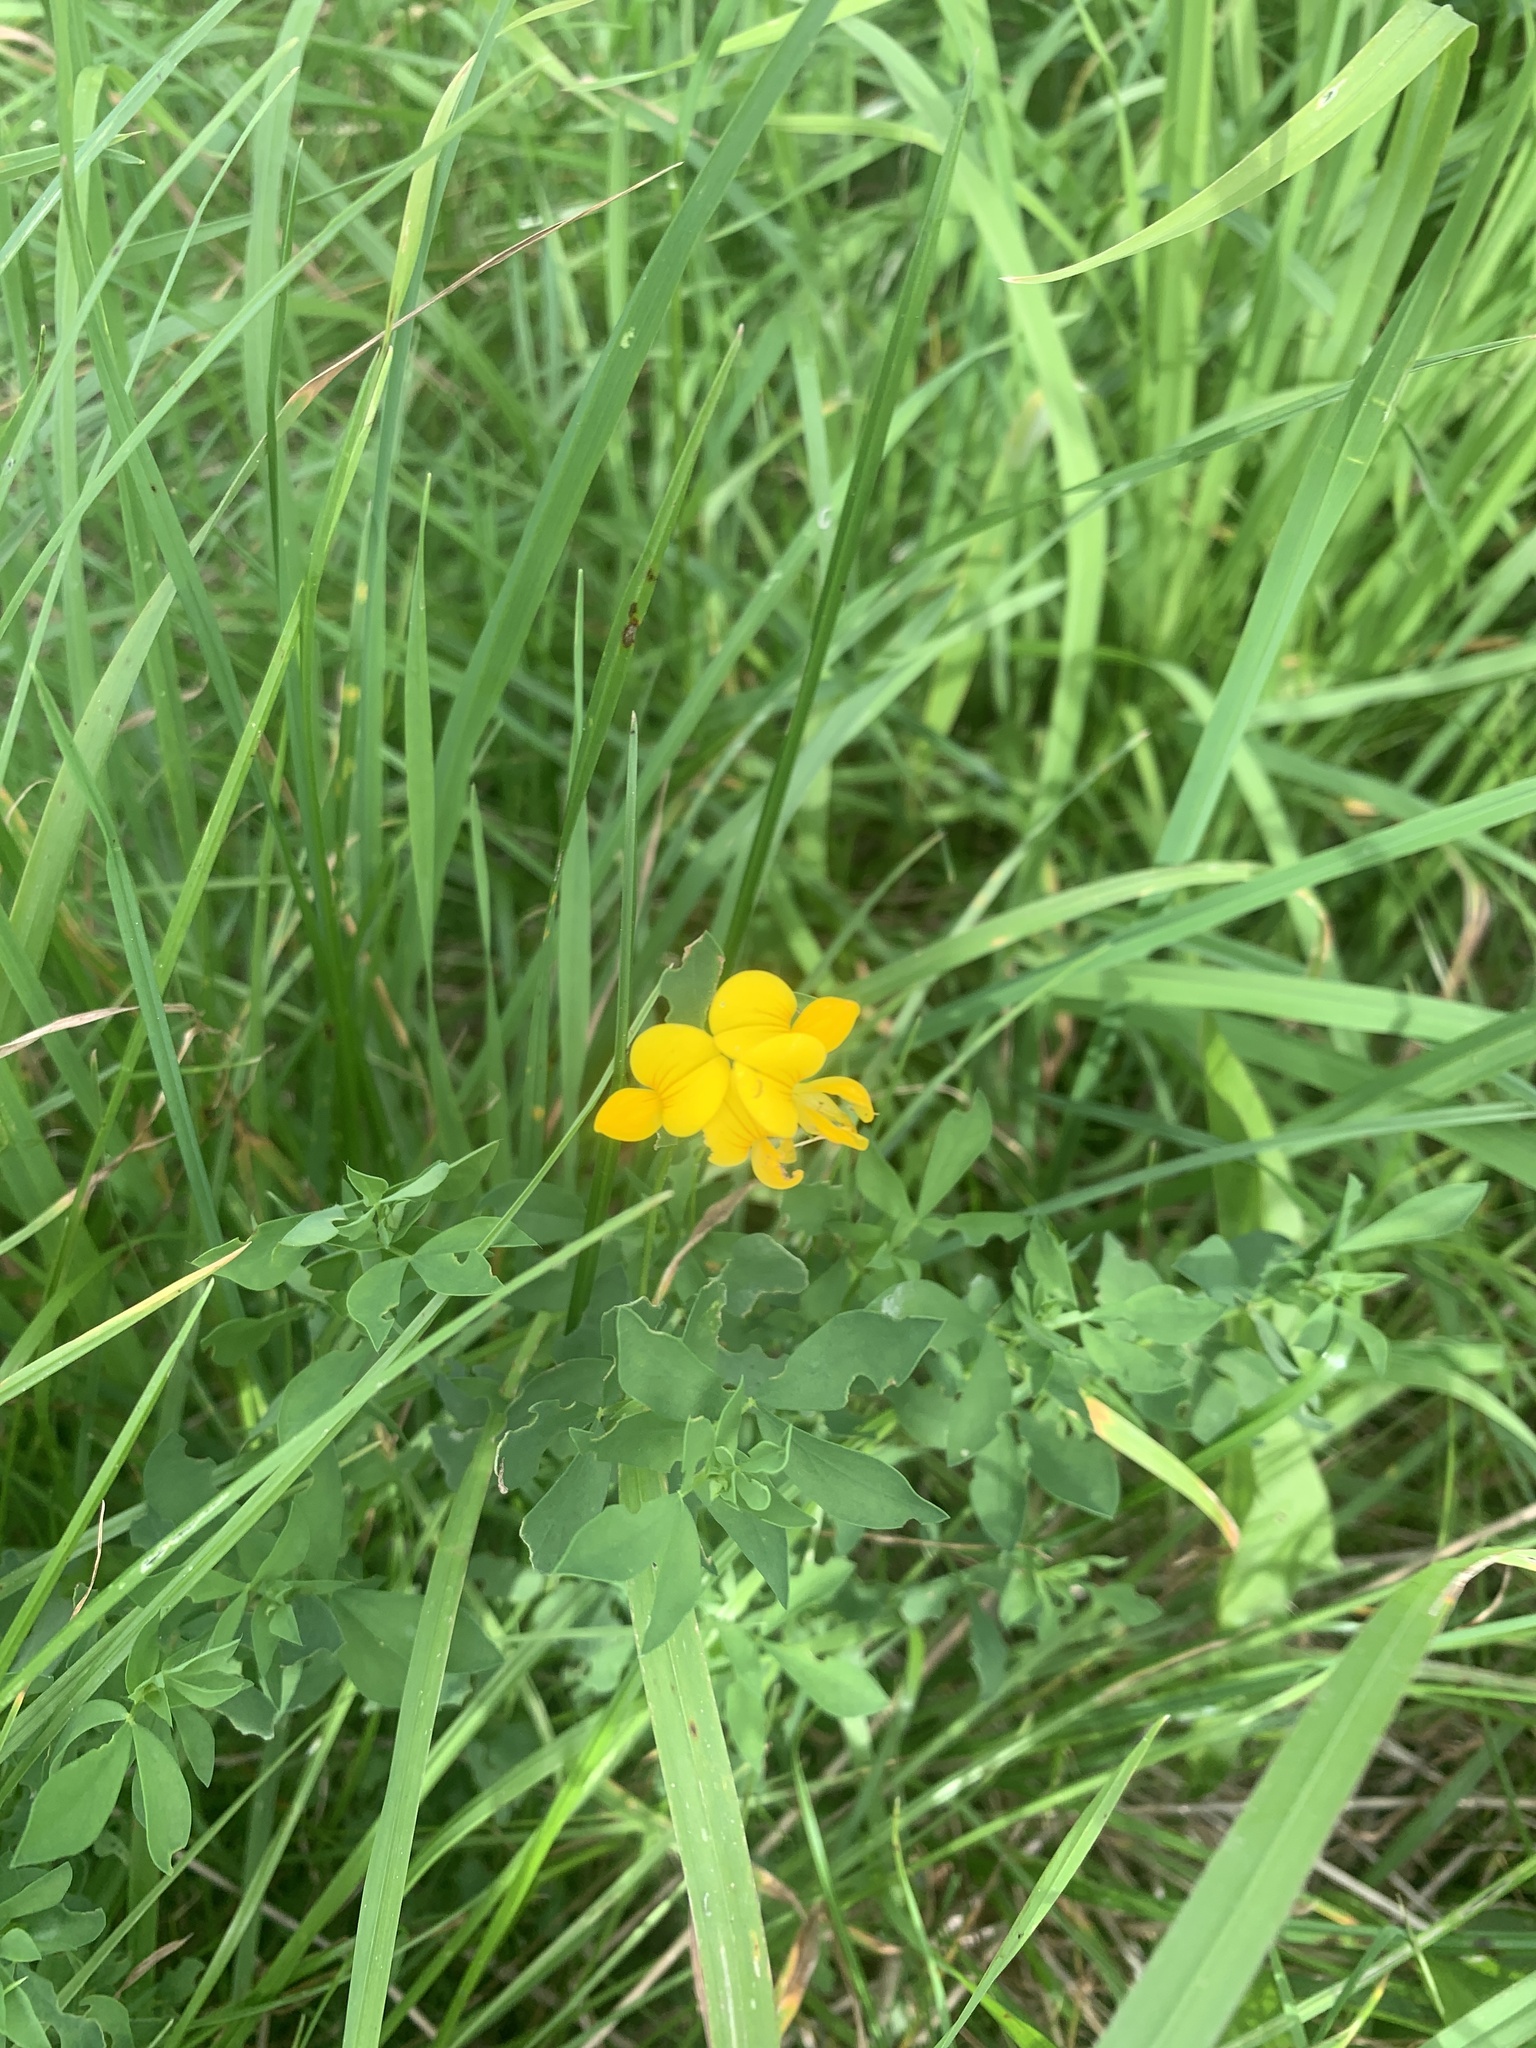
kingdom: Plantae
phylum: Tracheophyta
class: Magnoliopsida
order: Fabales
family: Fabaceae
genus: Lotus
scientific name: Lotus corniculatus
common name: Common bird's-foot-trefoil
